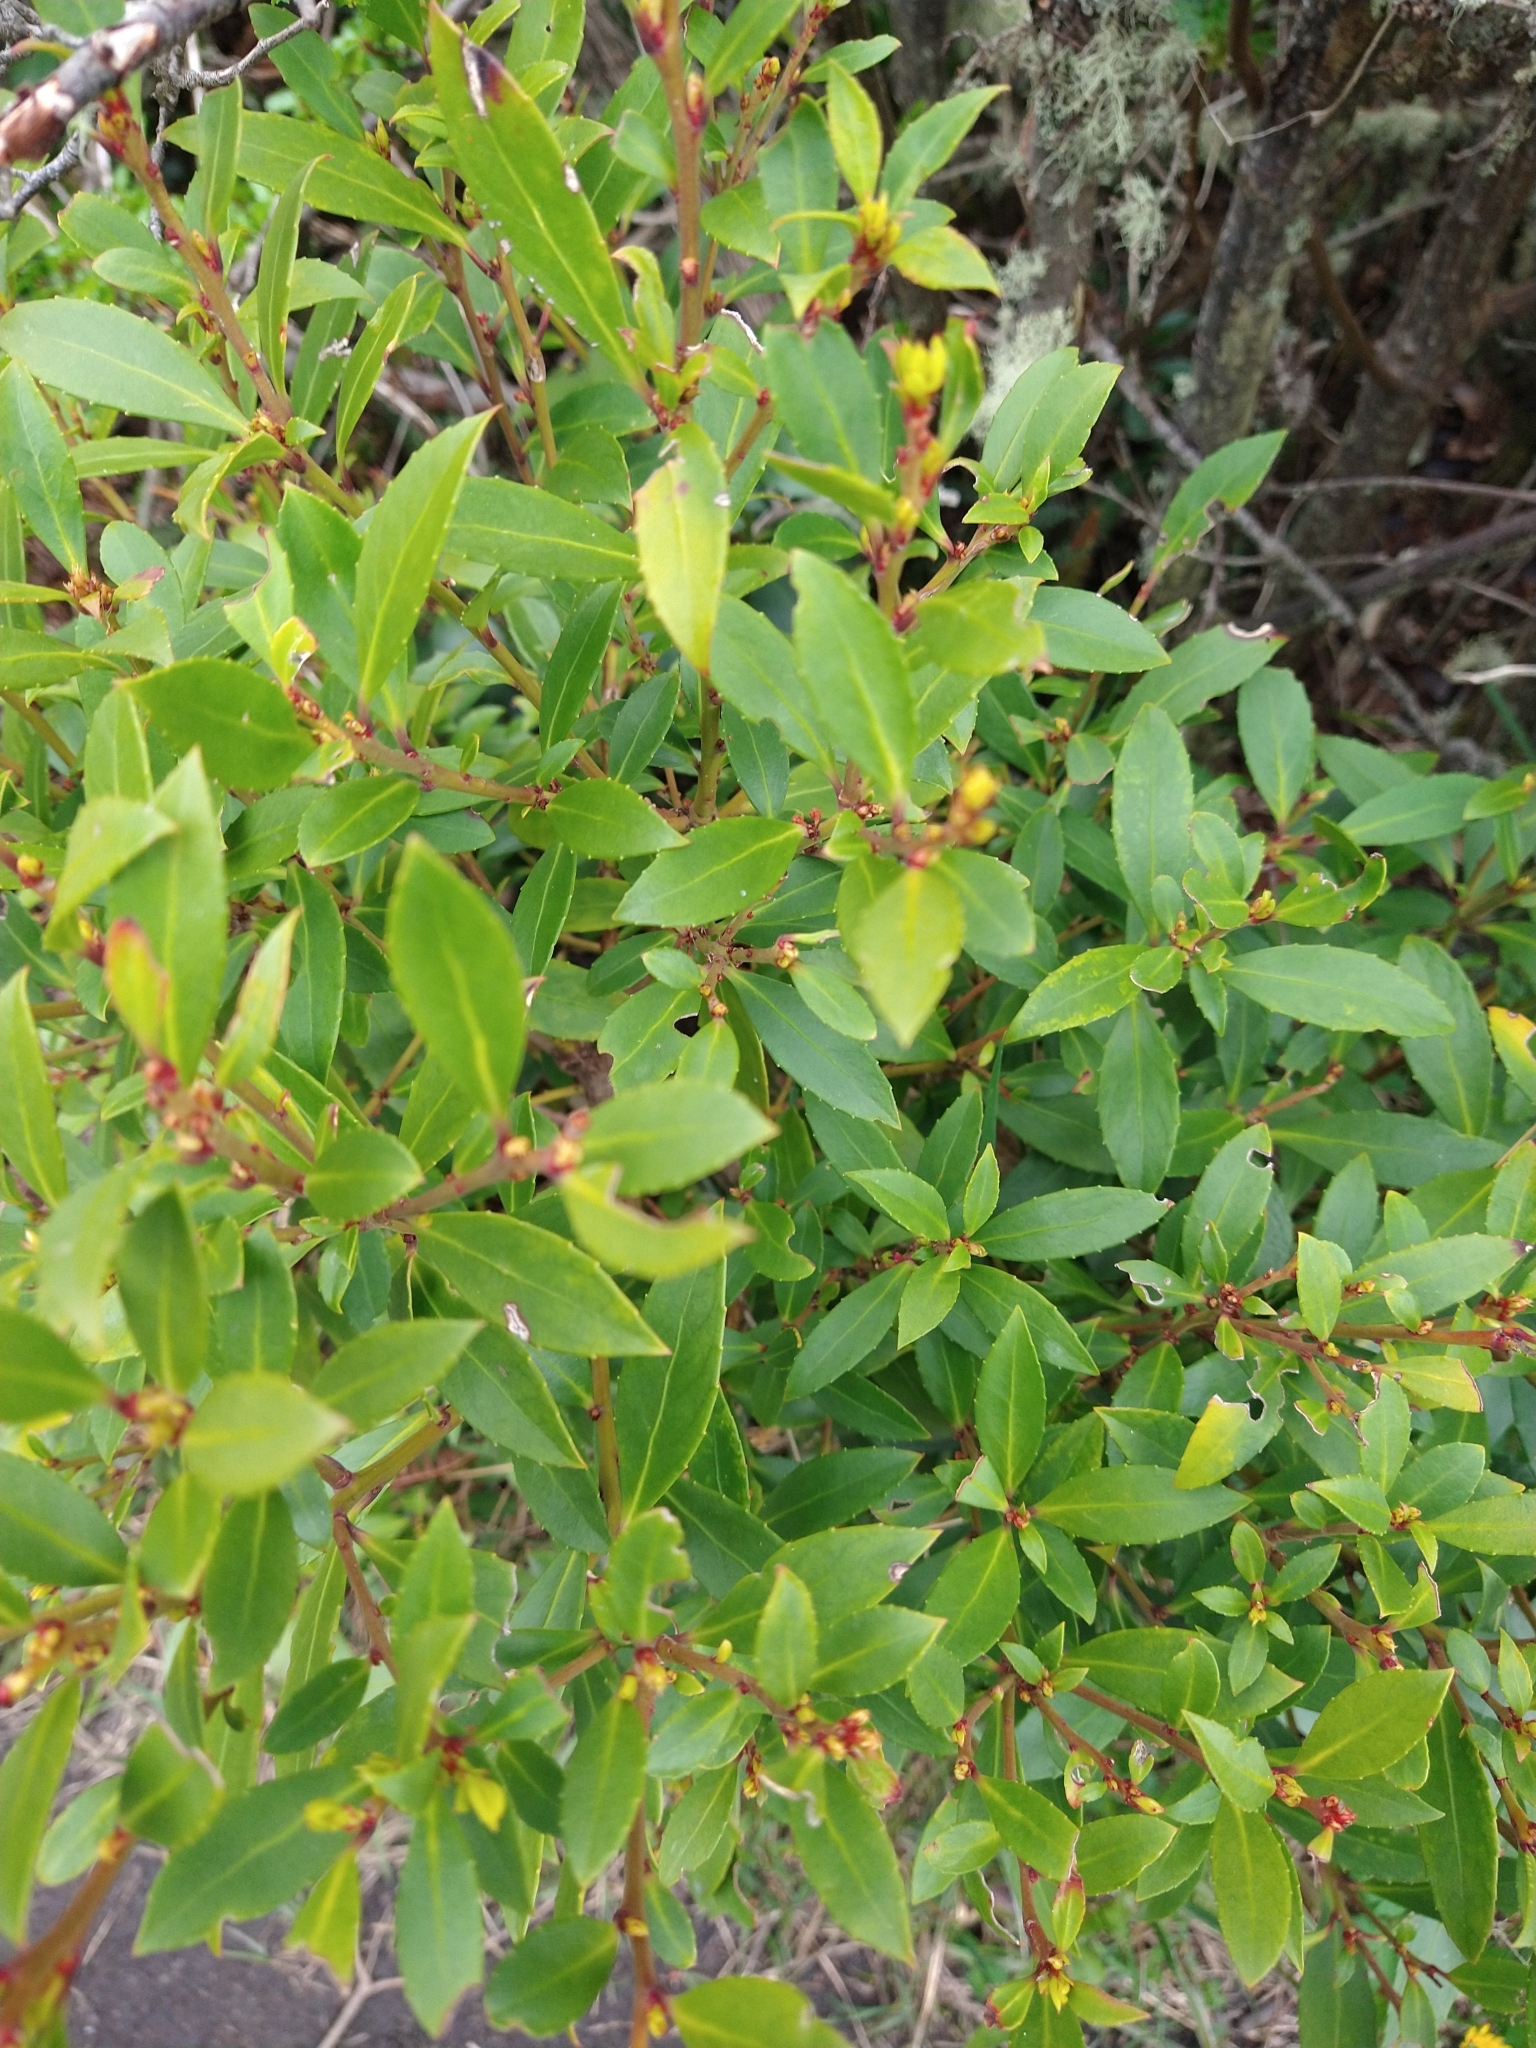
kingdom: Plantae
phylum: Tracheophyta
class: Magnoliopsida
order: Celastrales
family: Celastraceae
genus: Maytenus
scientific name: Maytenus magellanica
